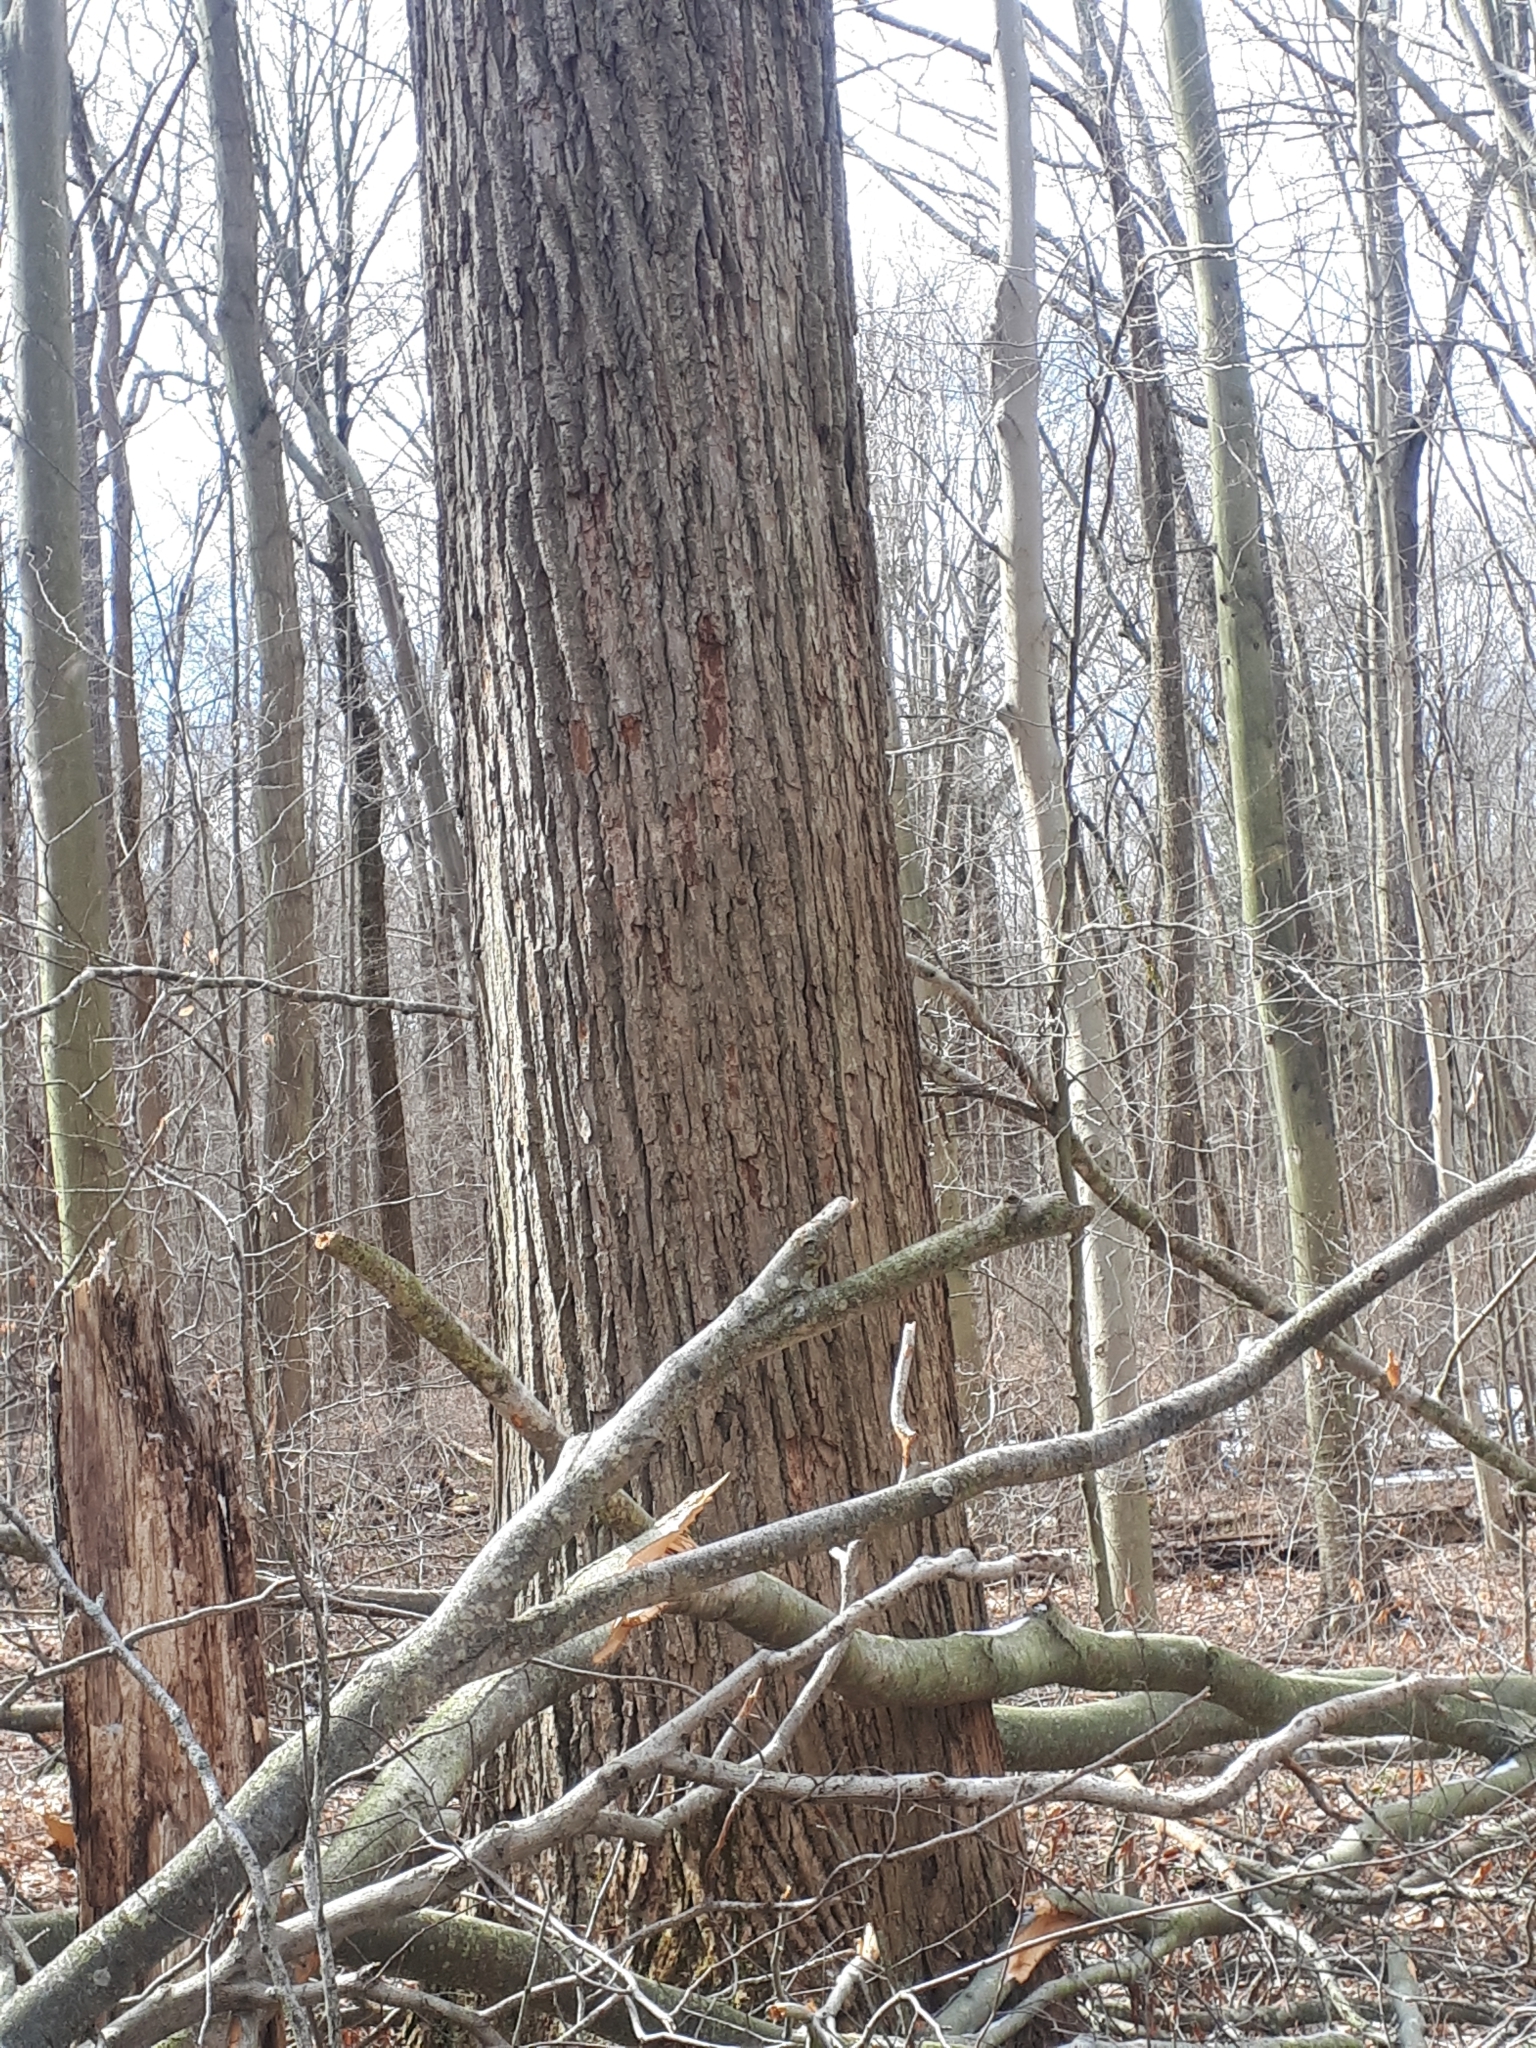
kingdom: Plantae
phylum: Tracheophyta
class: Magnoliopsida
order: Magnoliales
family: Magnoliaceae
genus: Liriodendron
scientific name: Liriodendron tulipifera
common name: Tulip tree
